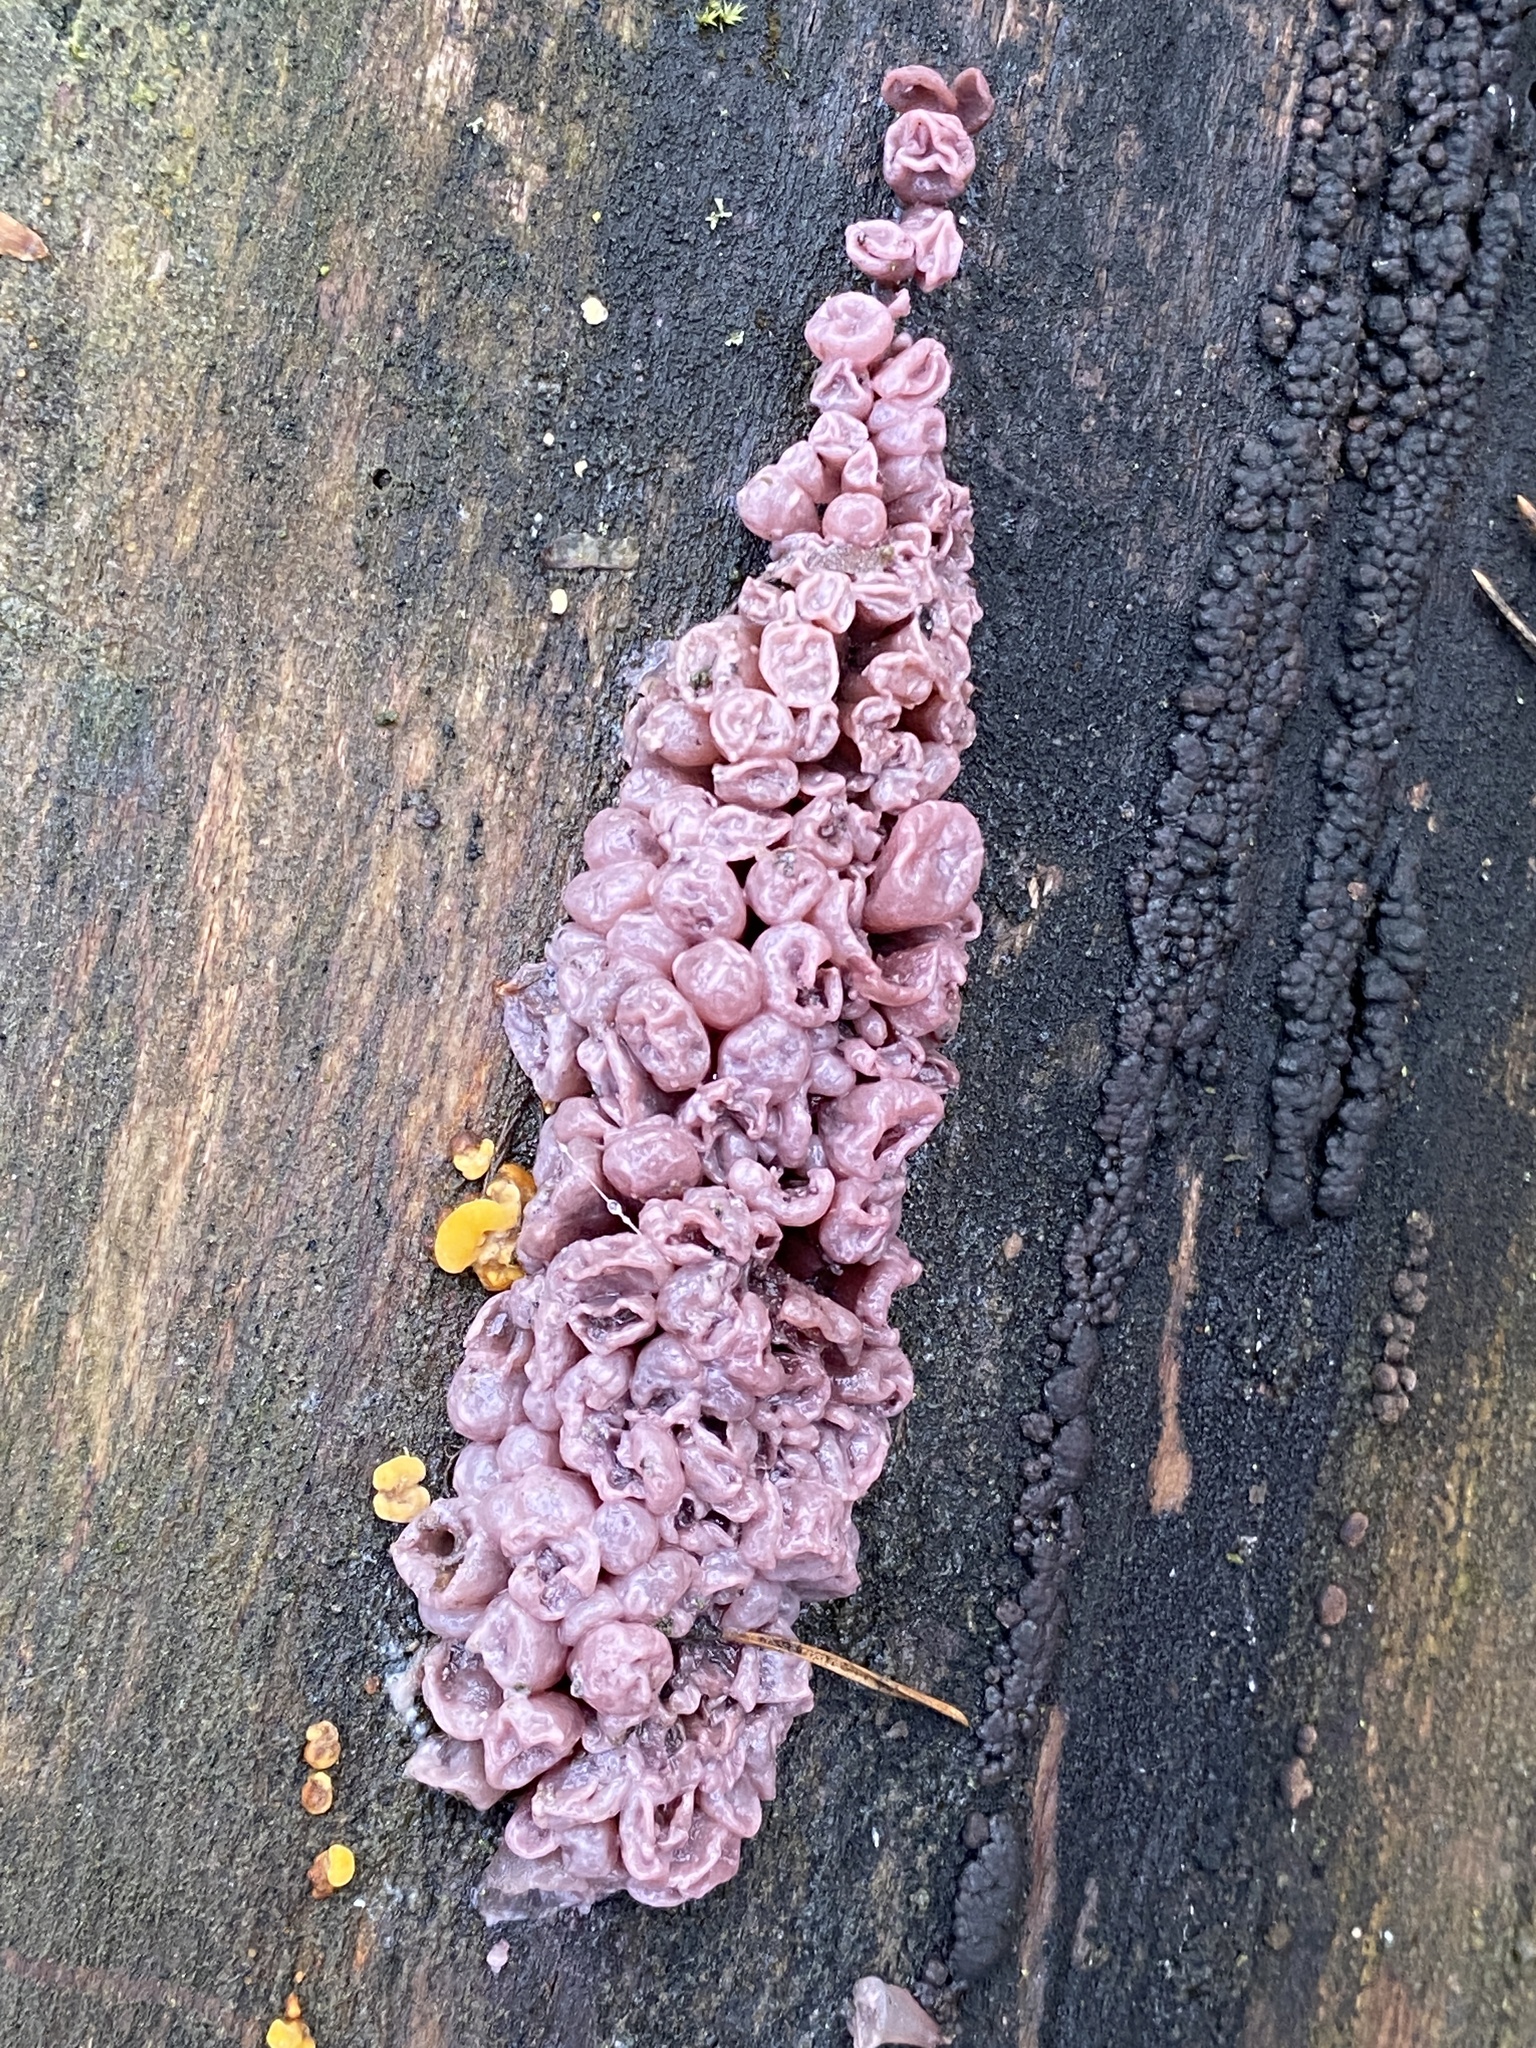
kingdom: Fungi
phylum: Ascomycota
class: Leotiomycetes
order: Helotiales
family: Gelatinodiscaceae
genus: Ascocoryne
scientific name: Ascocoryne sarcoides
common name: Purple jellydisc
